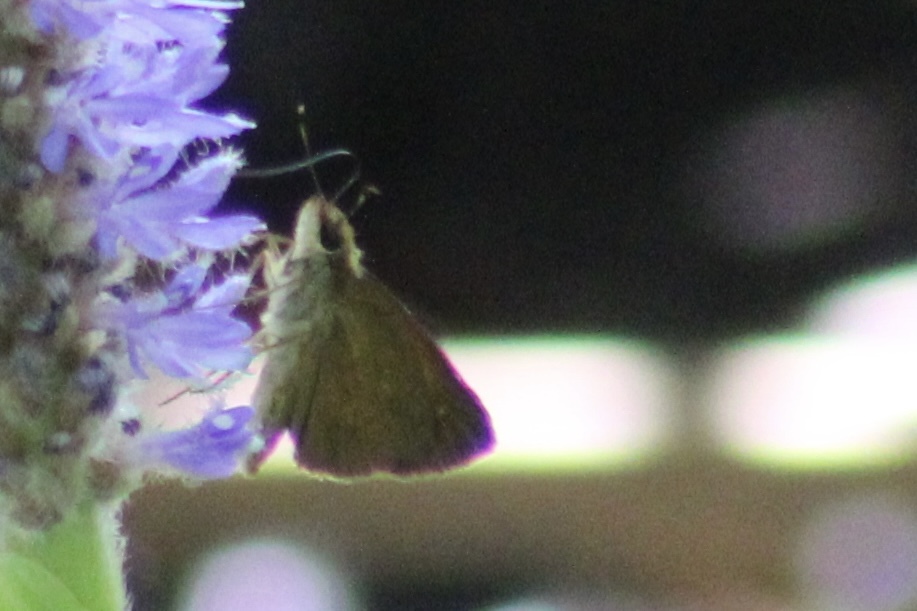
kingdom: Animalia
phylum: Arthropoda
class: Insecta
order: Lepidoptera
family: Hesperiidae
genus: Poanes
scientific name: Poanes viator
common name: Broad-winged skipper
